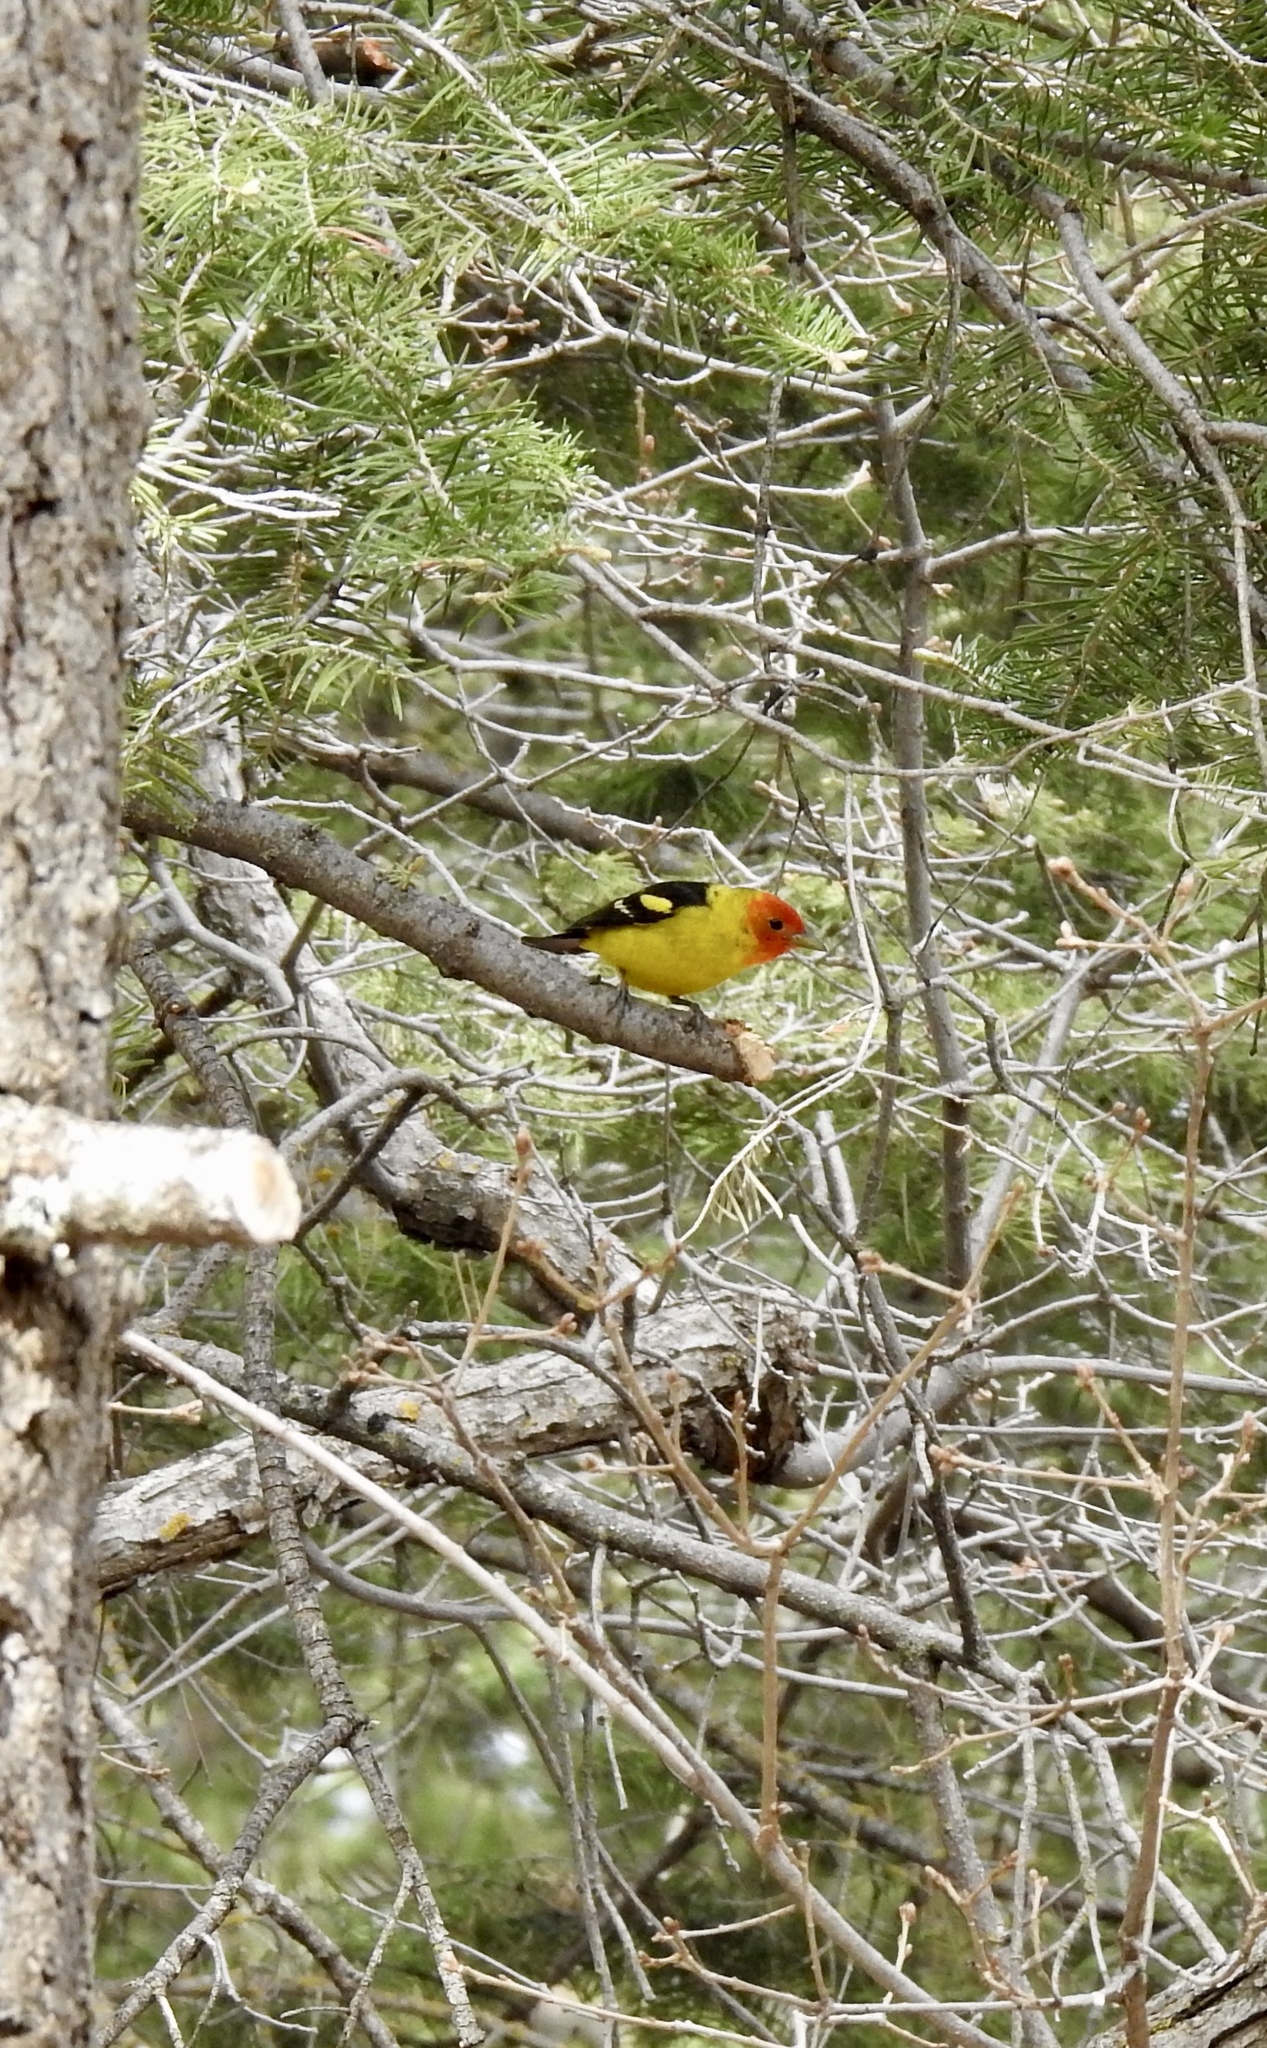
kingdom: Animalia
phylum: Chordata
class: Aves
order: Passeriformes
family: Cardinalidae
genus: Piranga
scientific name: Piranga ludoviciana
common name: Western tanager
